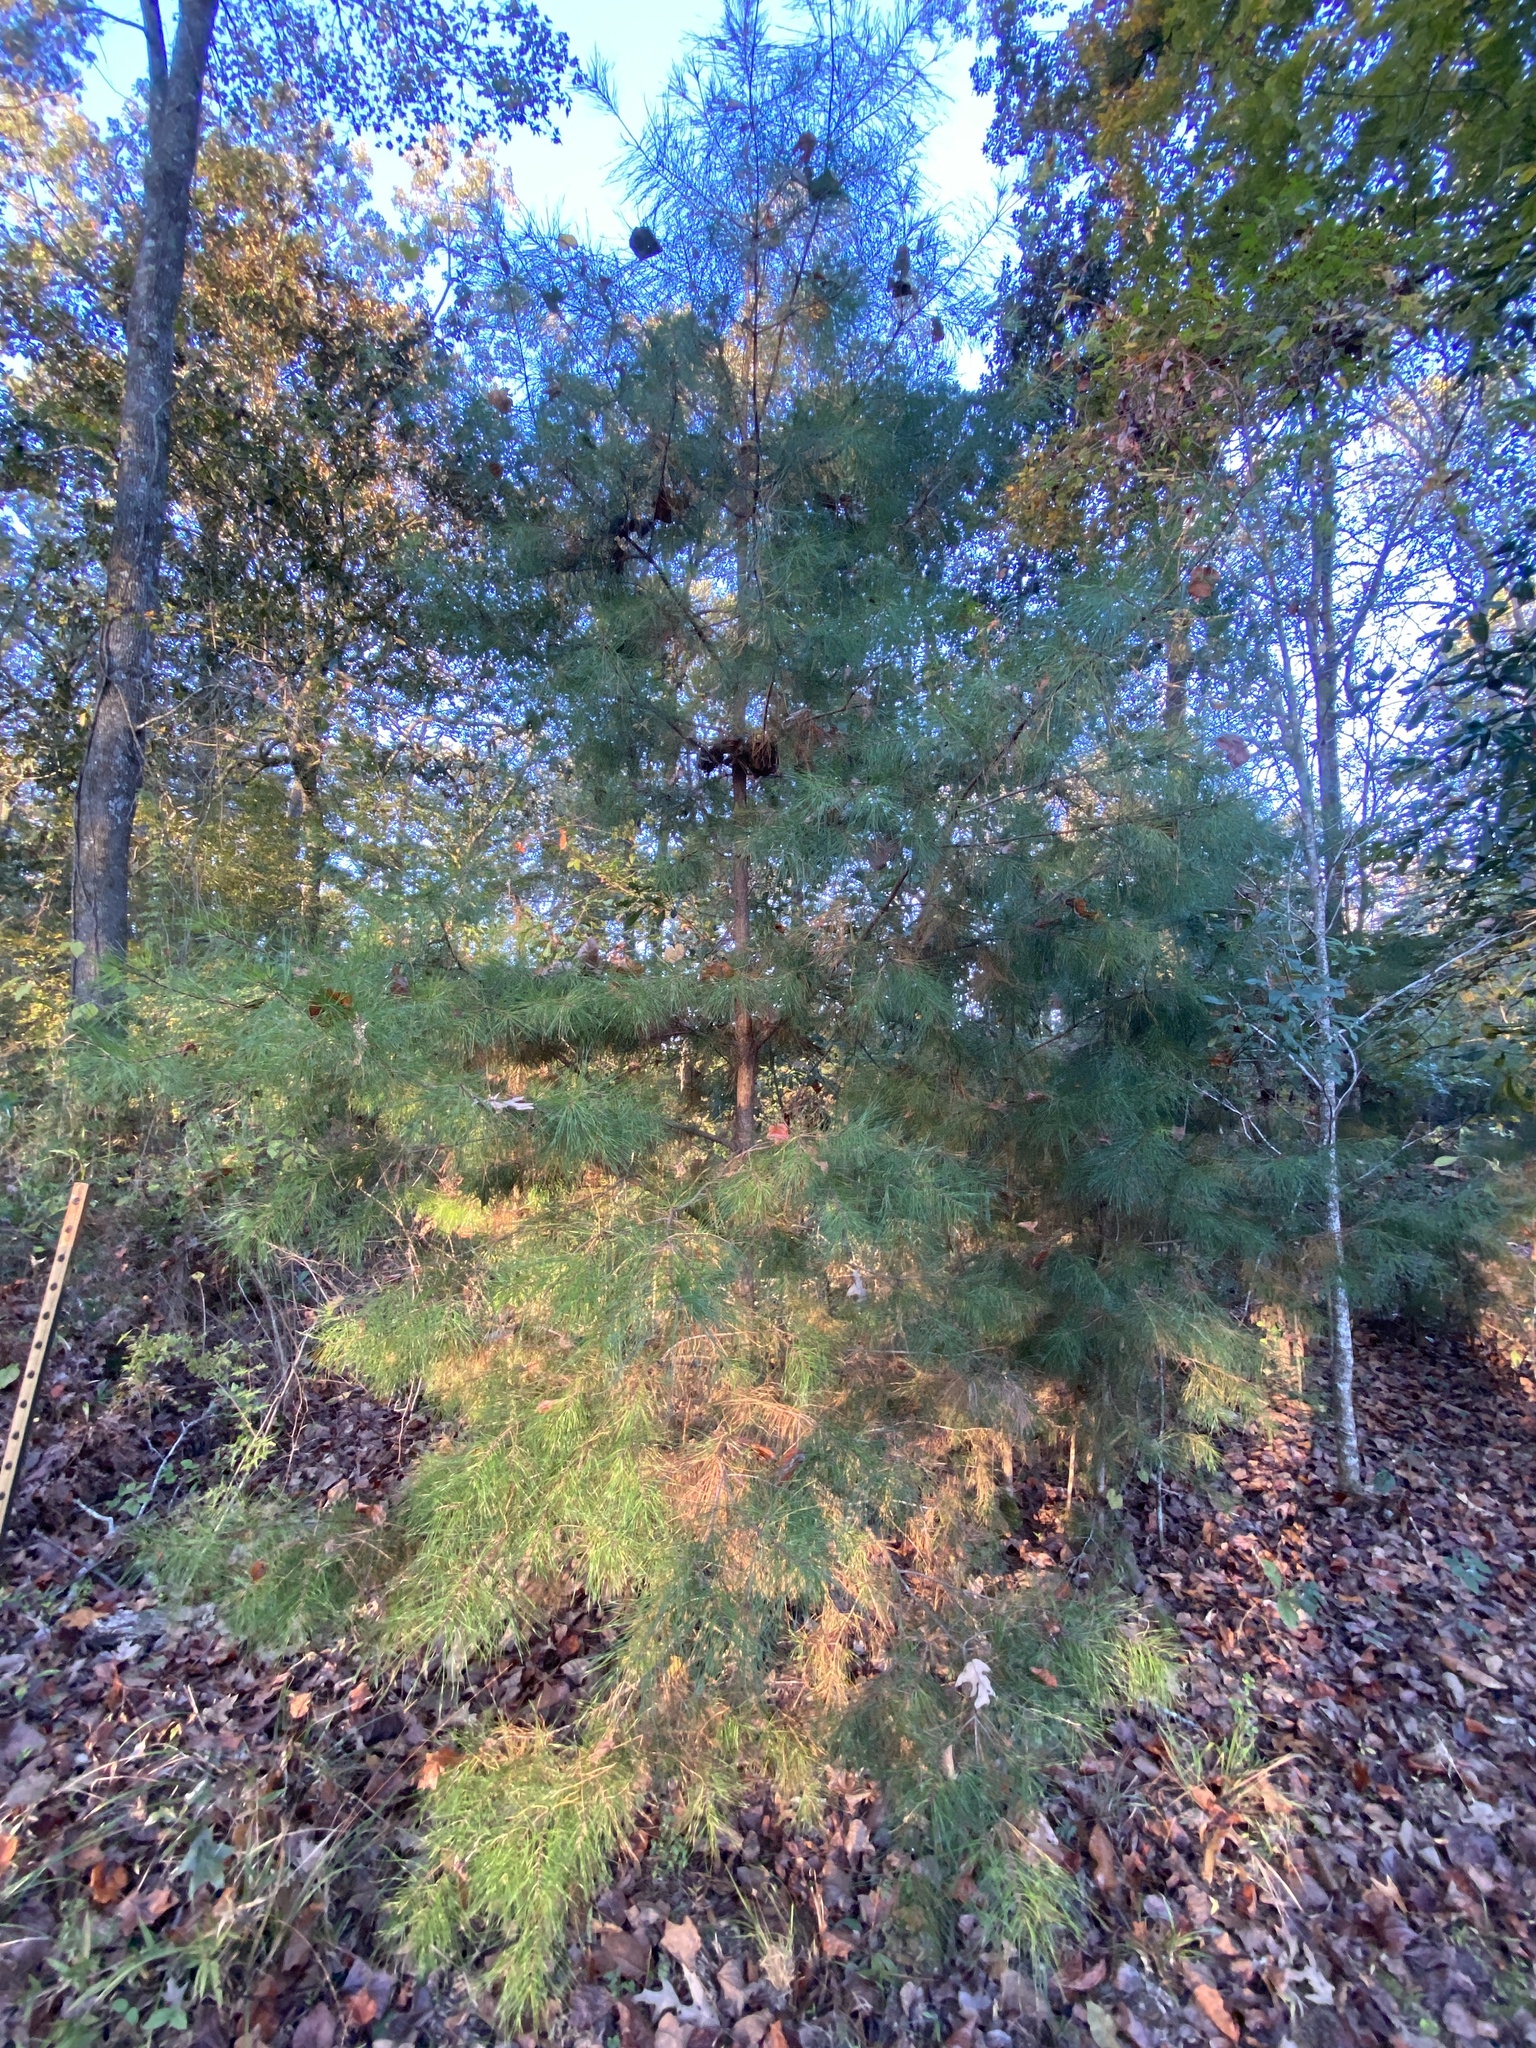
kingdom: Plantae
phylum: Tracheophyta
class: Pinopsida
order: Pinales
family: Pinaceae
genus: Pinus
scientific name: Pinus glabra
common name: Spruce pine
